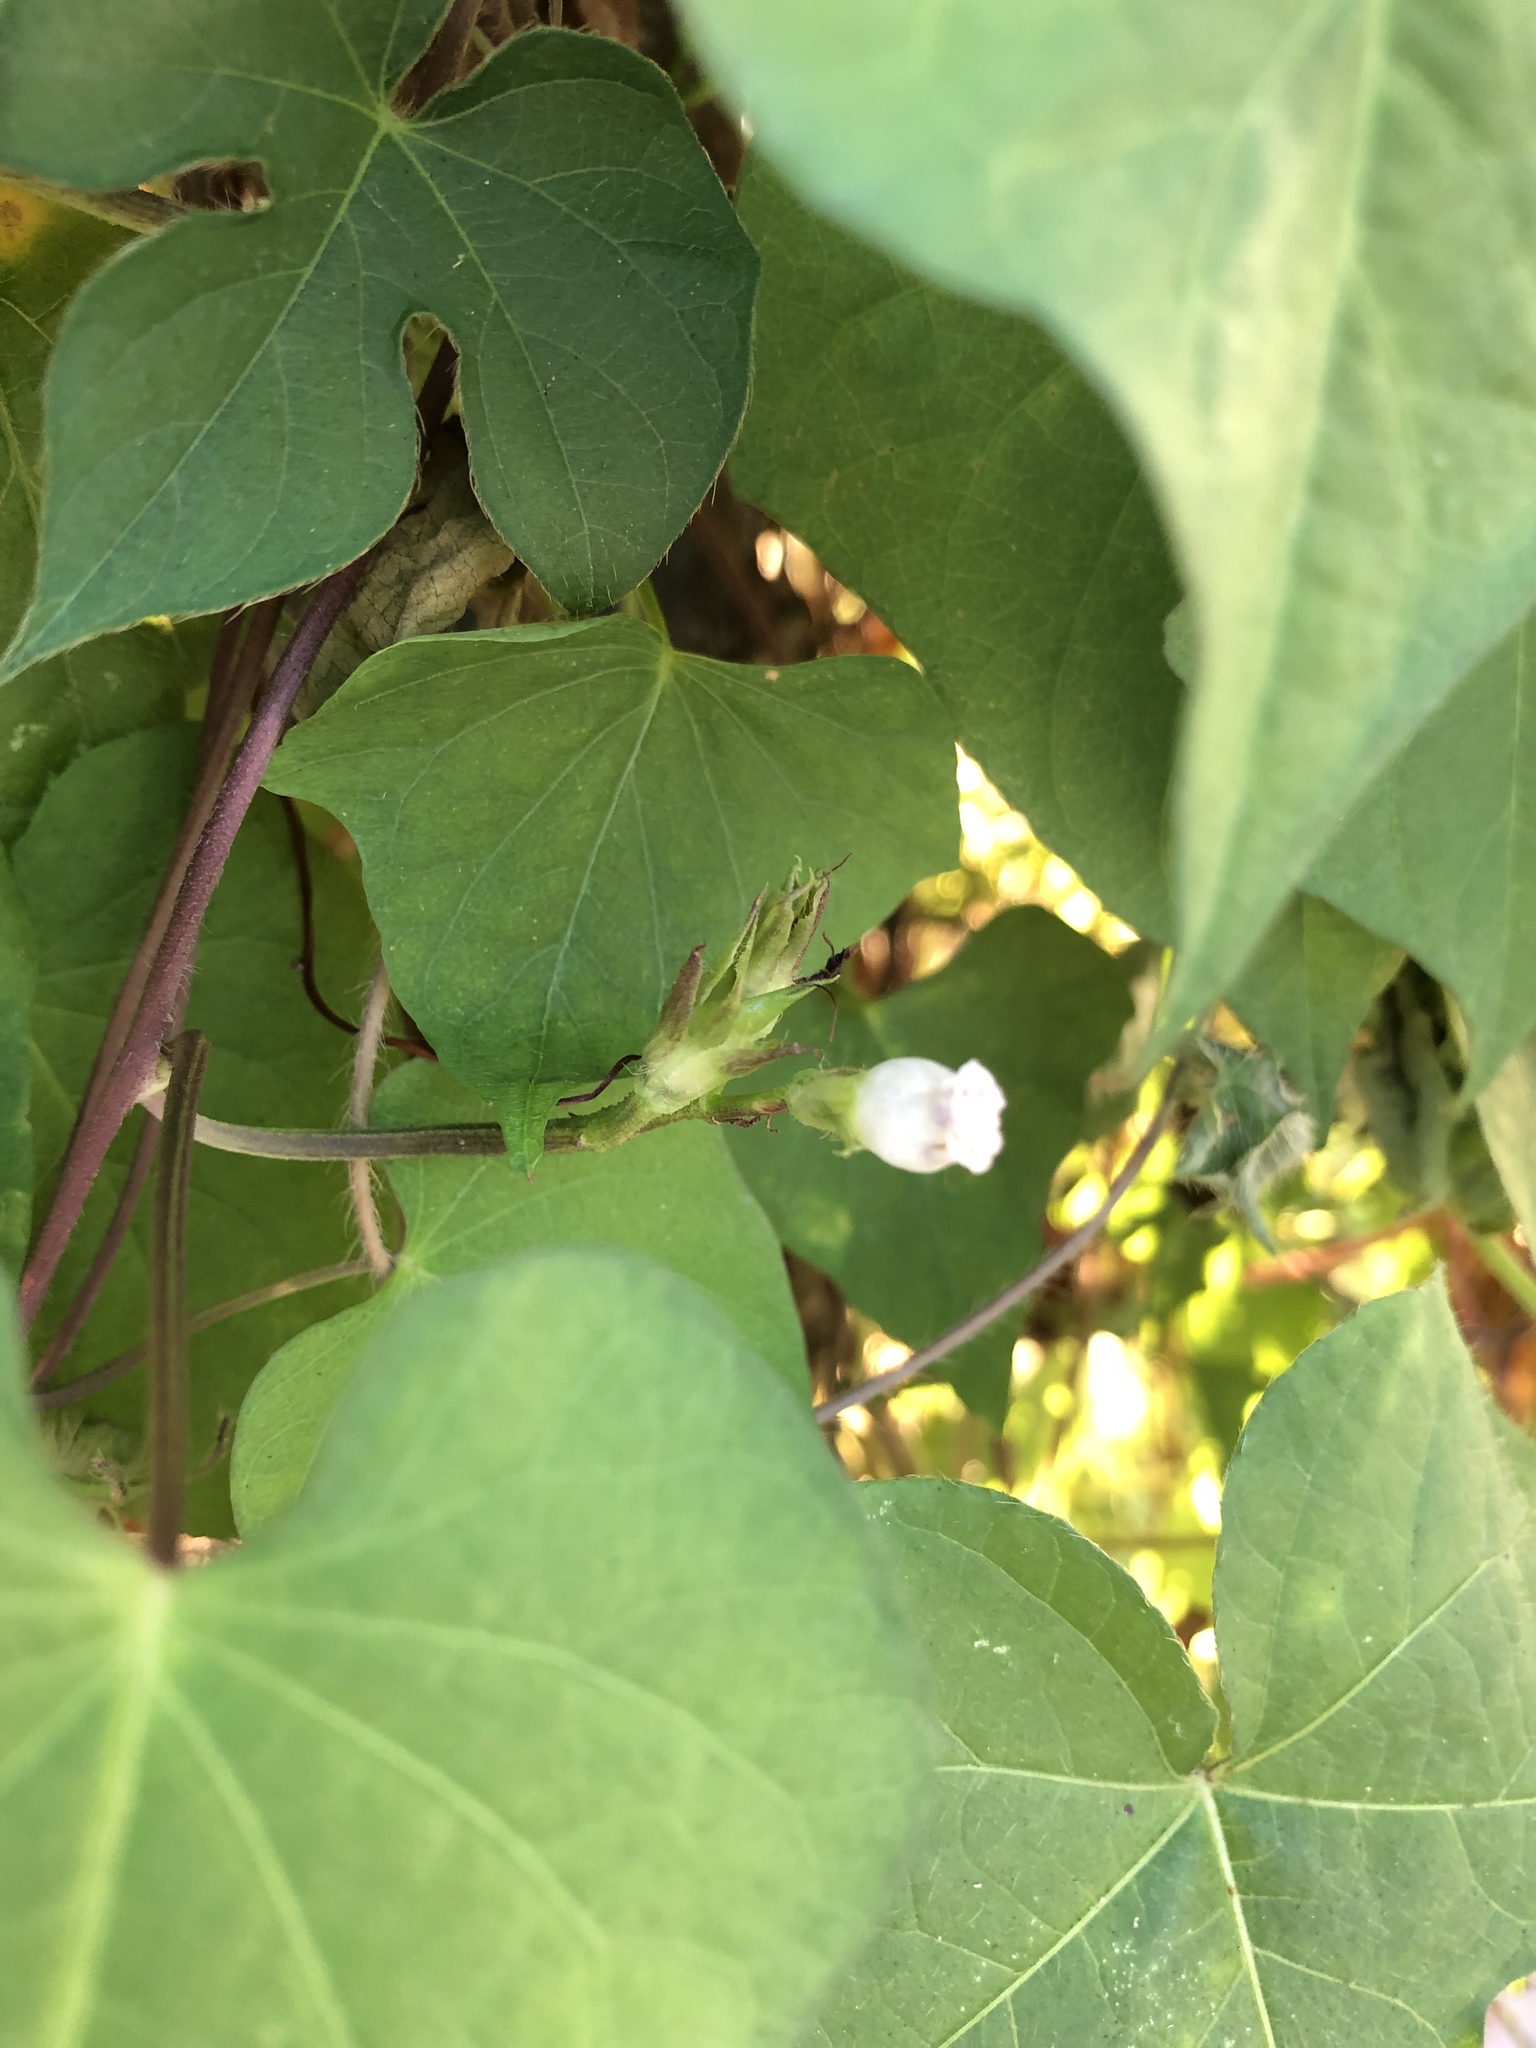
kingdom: Plantae
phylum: Tracheophyta
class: Magnoliopsida
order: Solanales
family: Convolvulaceae
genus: Ipomoea
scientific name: Ipomoea lacunosa
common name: White morning-glory
